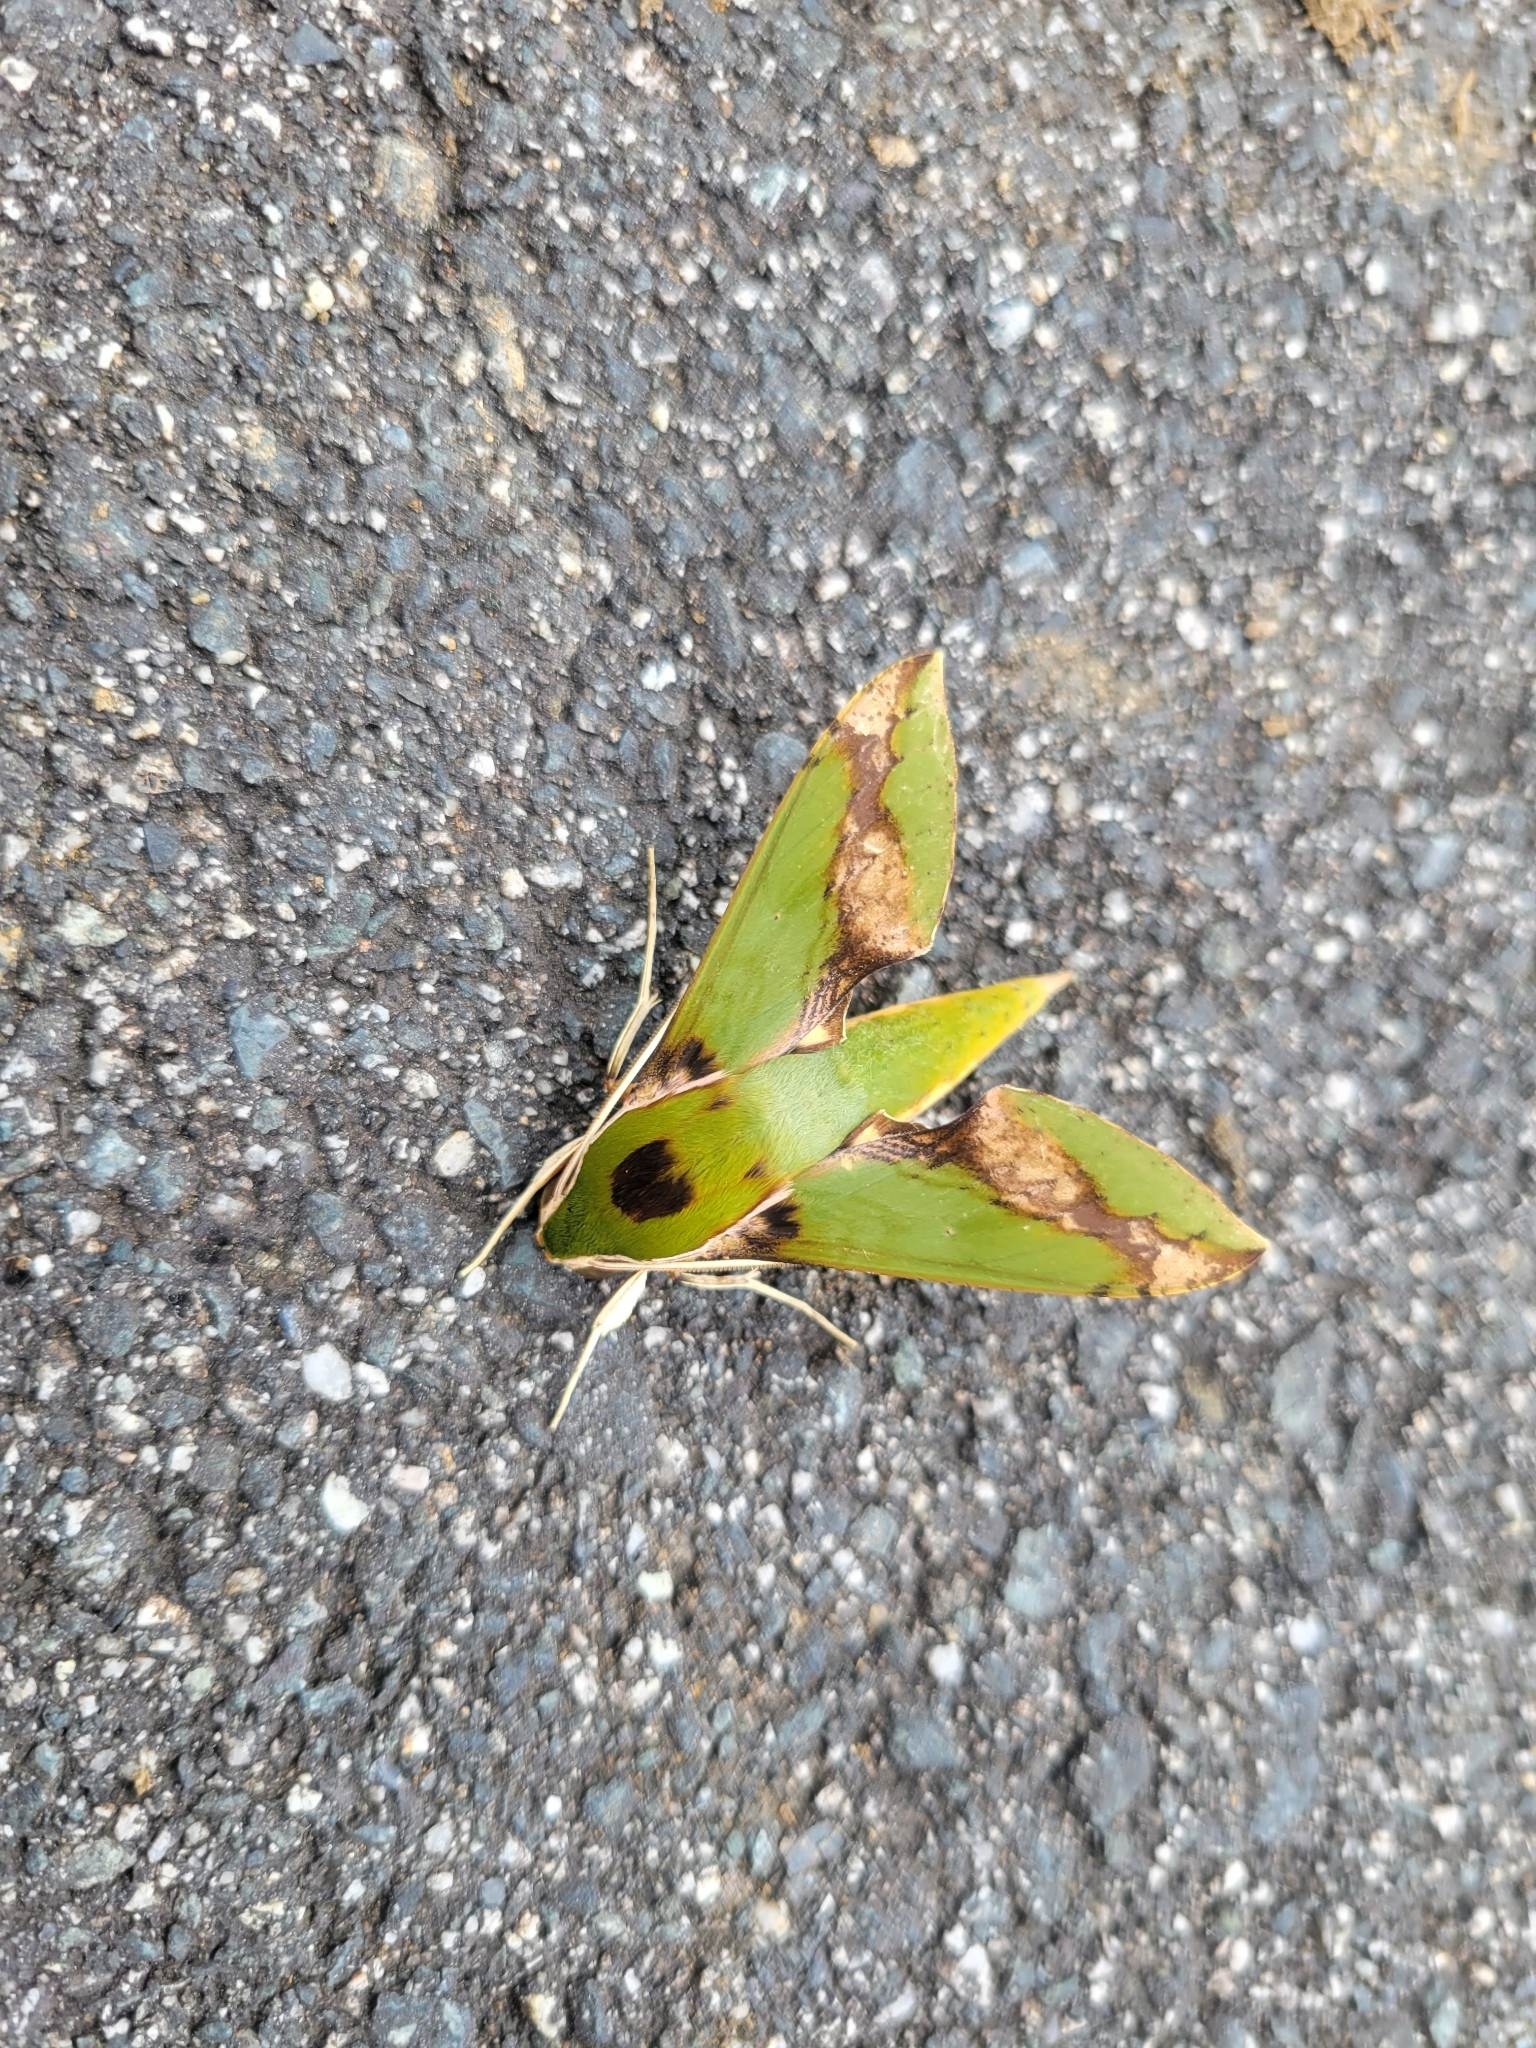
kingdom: Animalia
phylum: Arthropoda
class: Insecta
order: Lepidoptera
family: Sphingidae
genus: Xylophanes
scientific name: Xylophanes chiron
